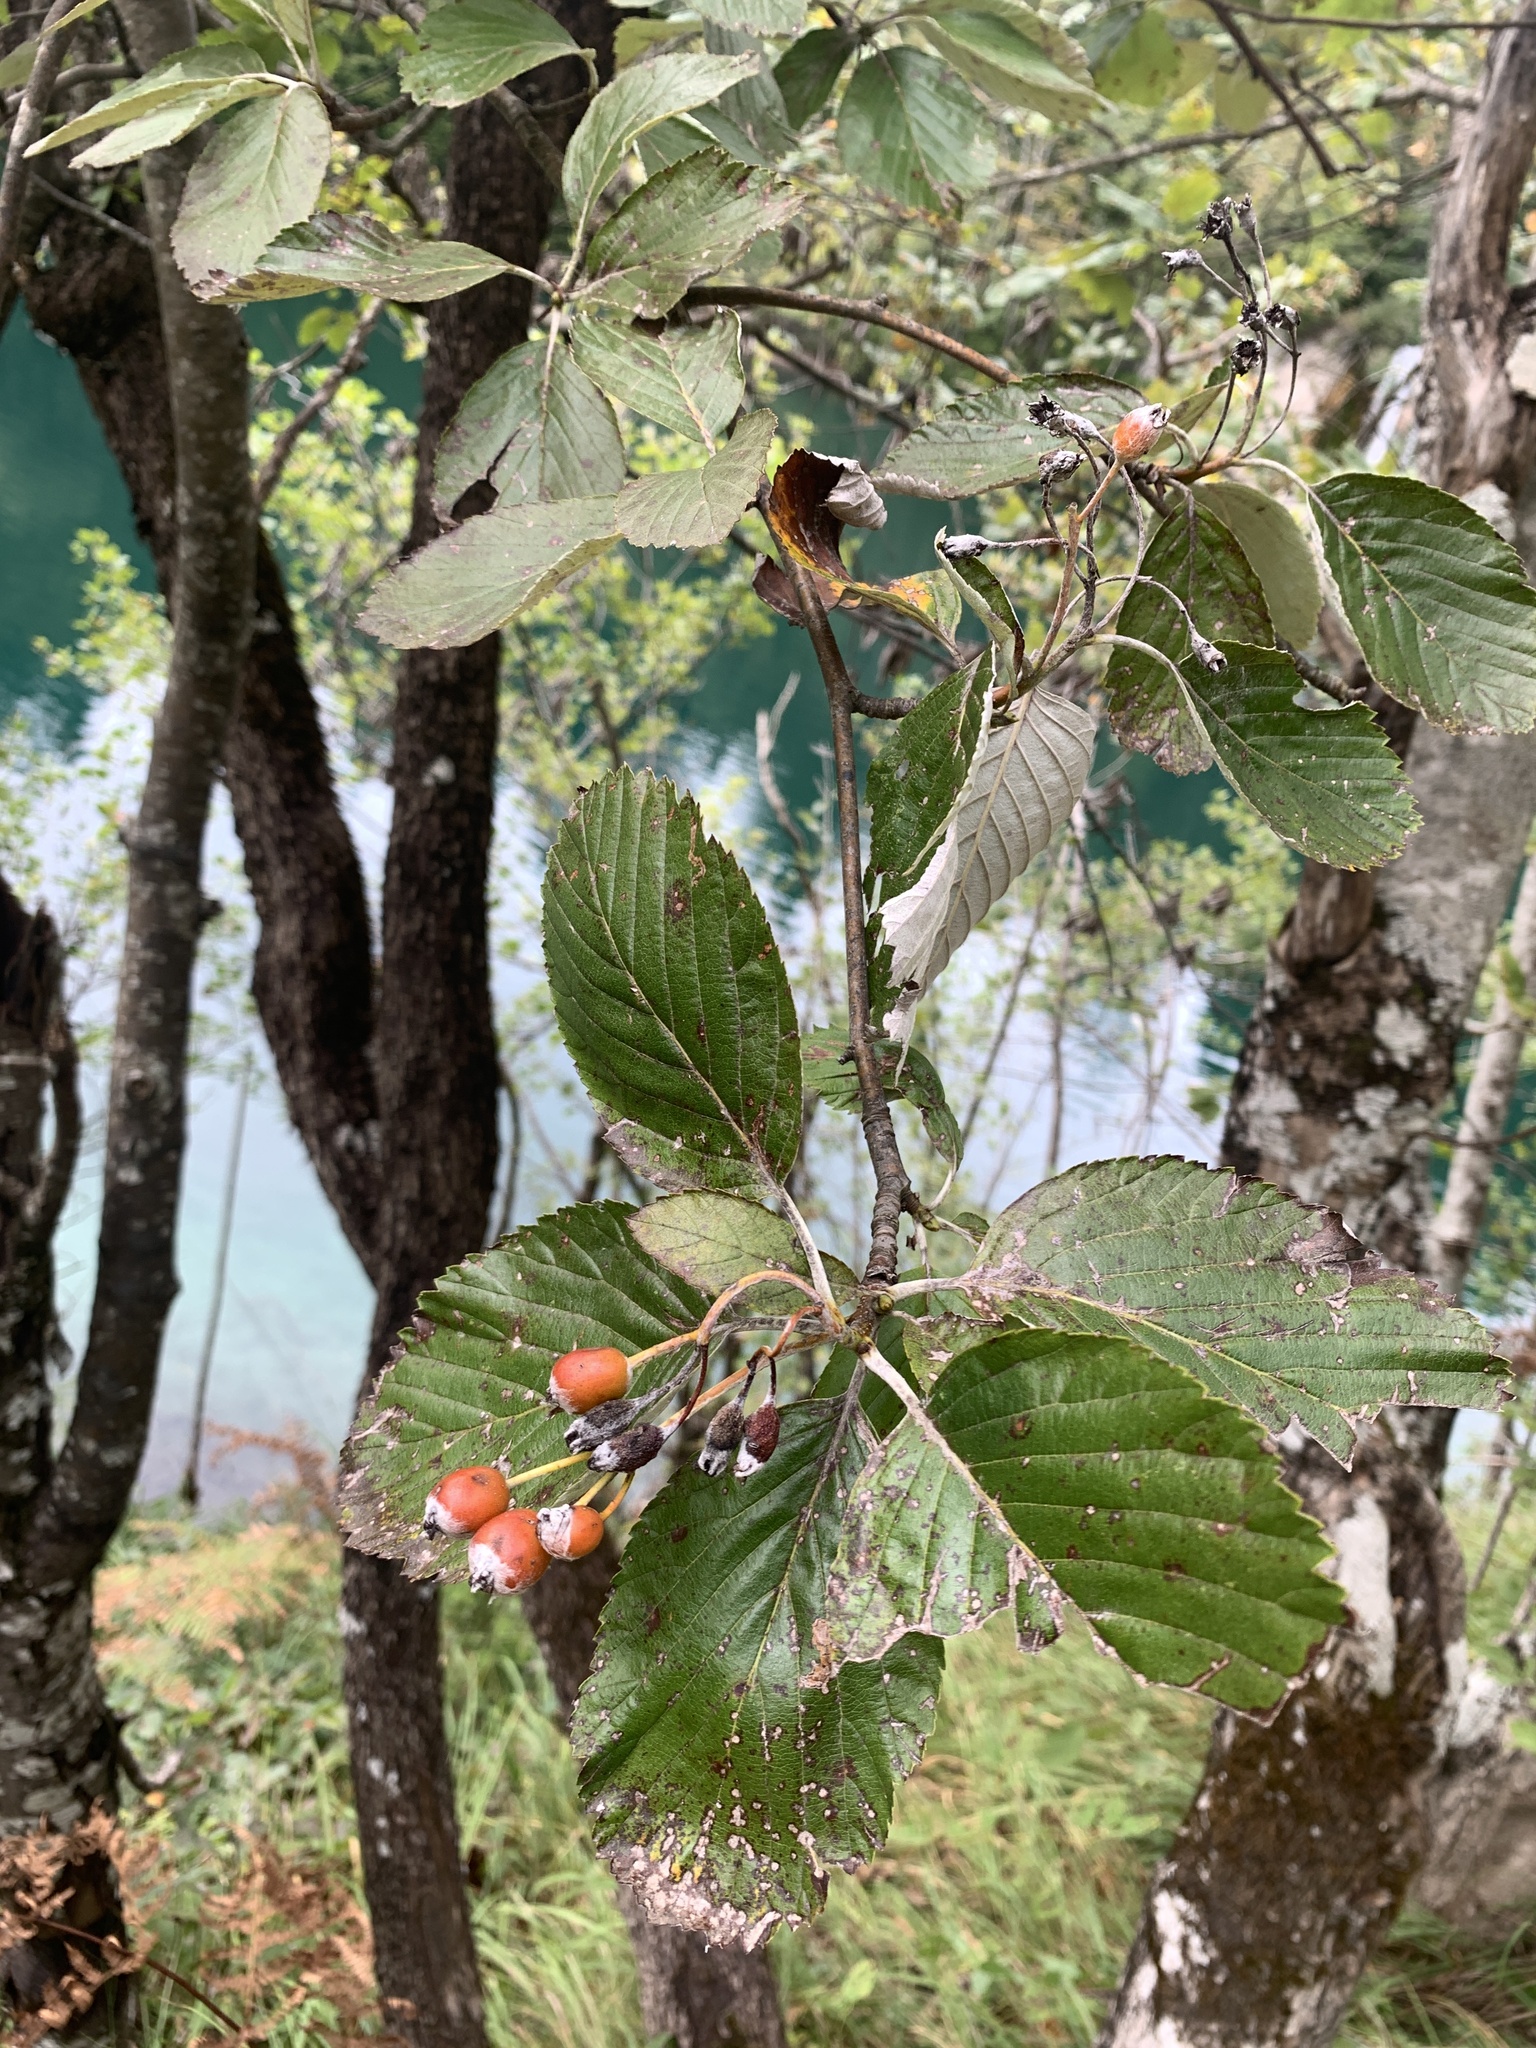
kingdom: Plantae
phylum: Tracheophyta
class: Magnoliopsida
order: Rosales
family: Rosaceae
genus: Aria
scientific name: Aria edulis
